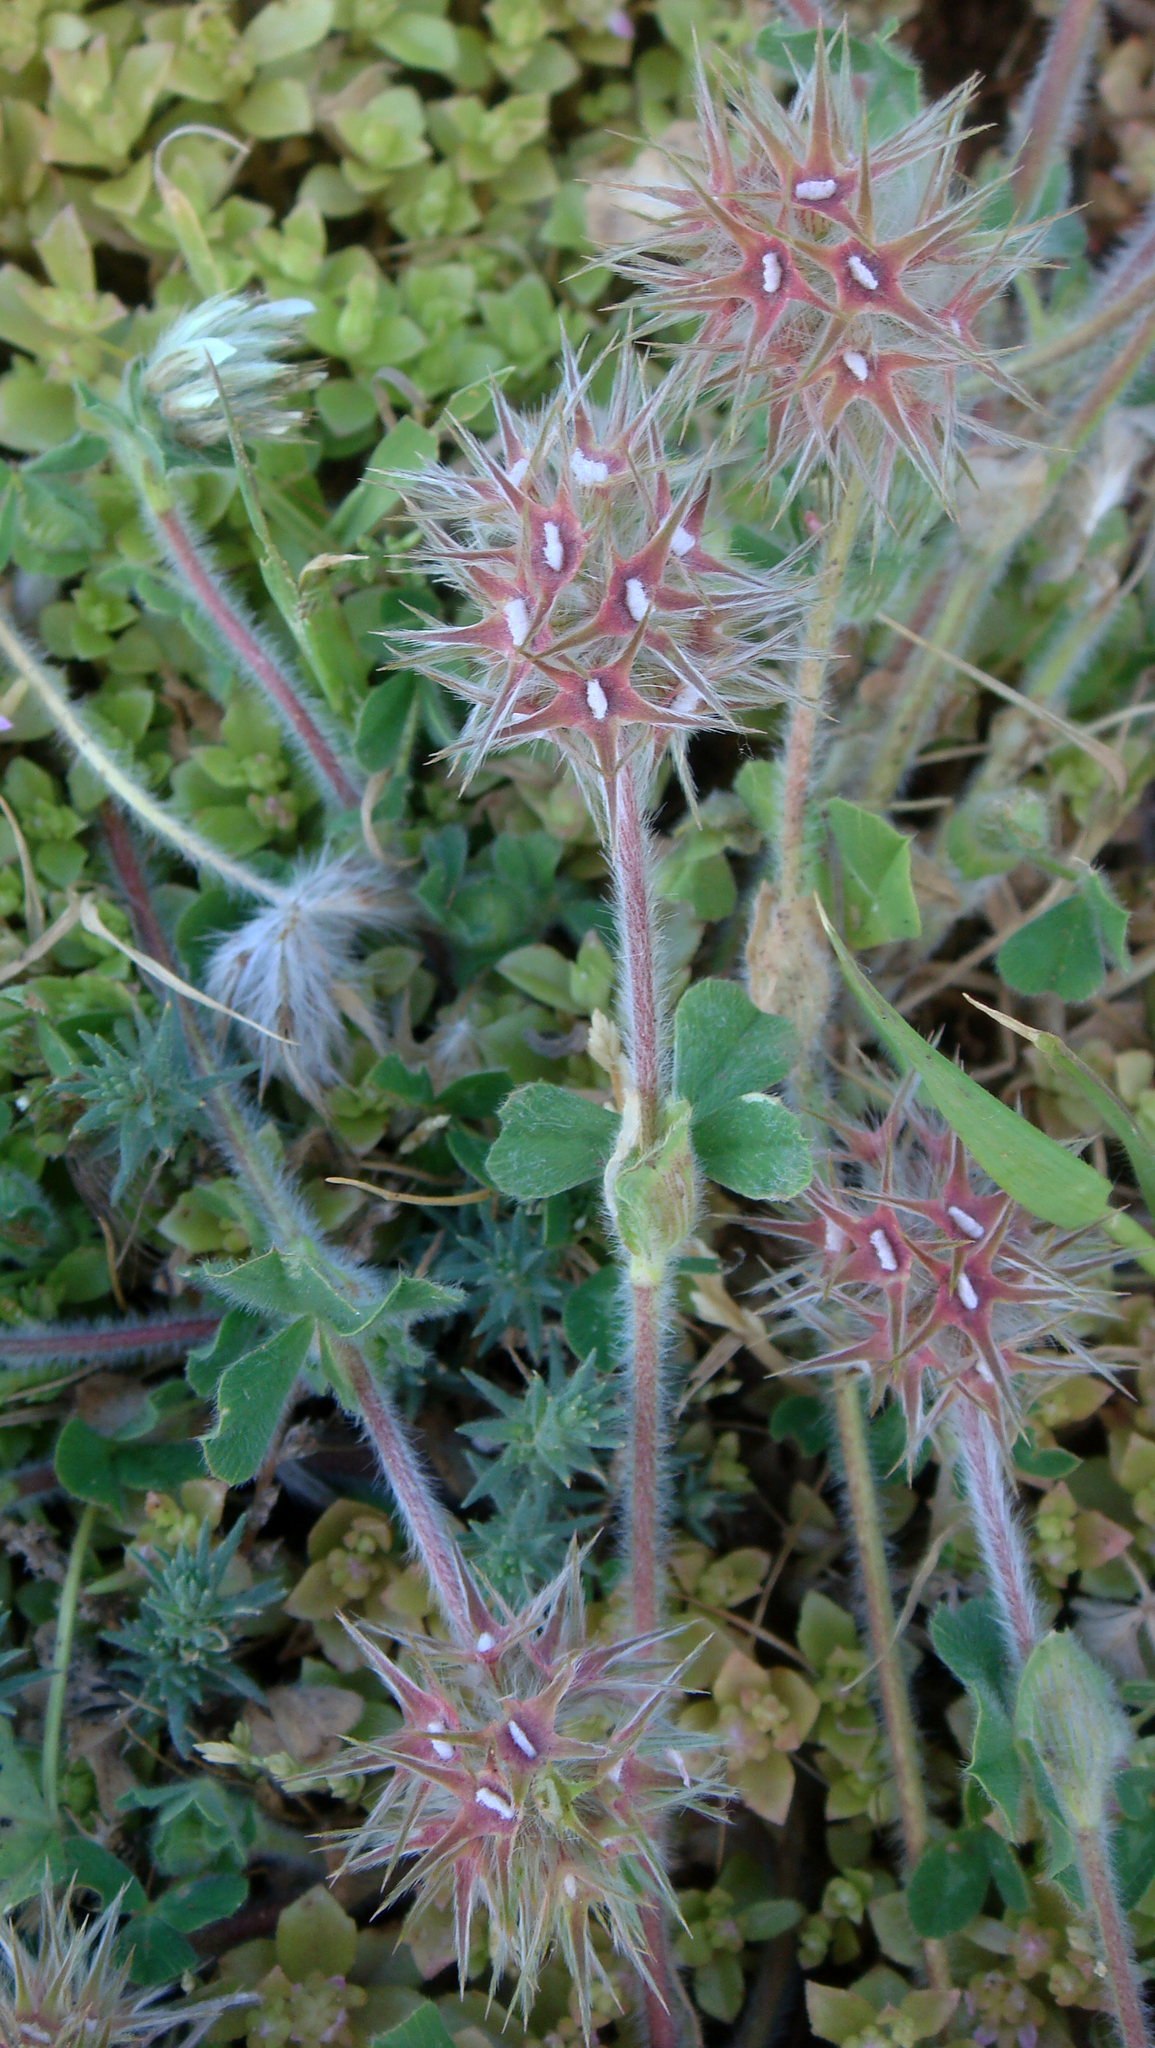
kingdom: Plantae
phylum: Tracheophyta
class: Magnoliopsida
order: Fabales
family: Fabaceae
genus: Trifolium
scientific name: Trifolium stellatum
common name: Starry clover
